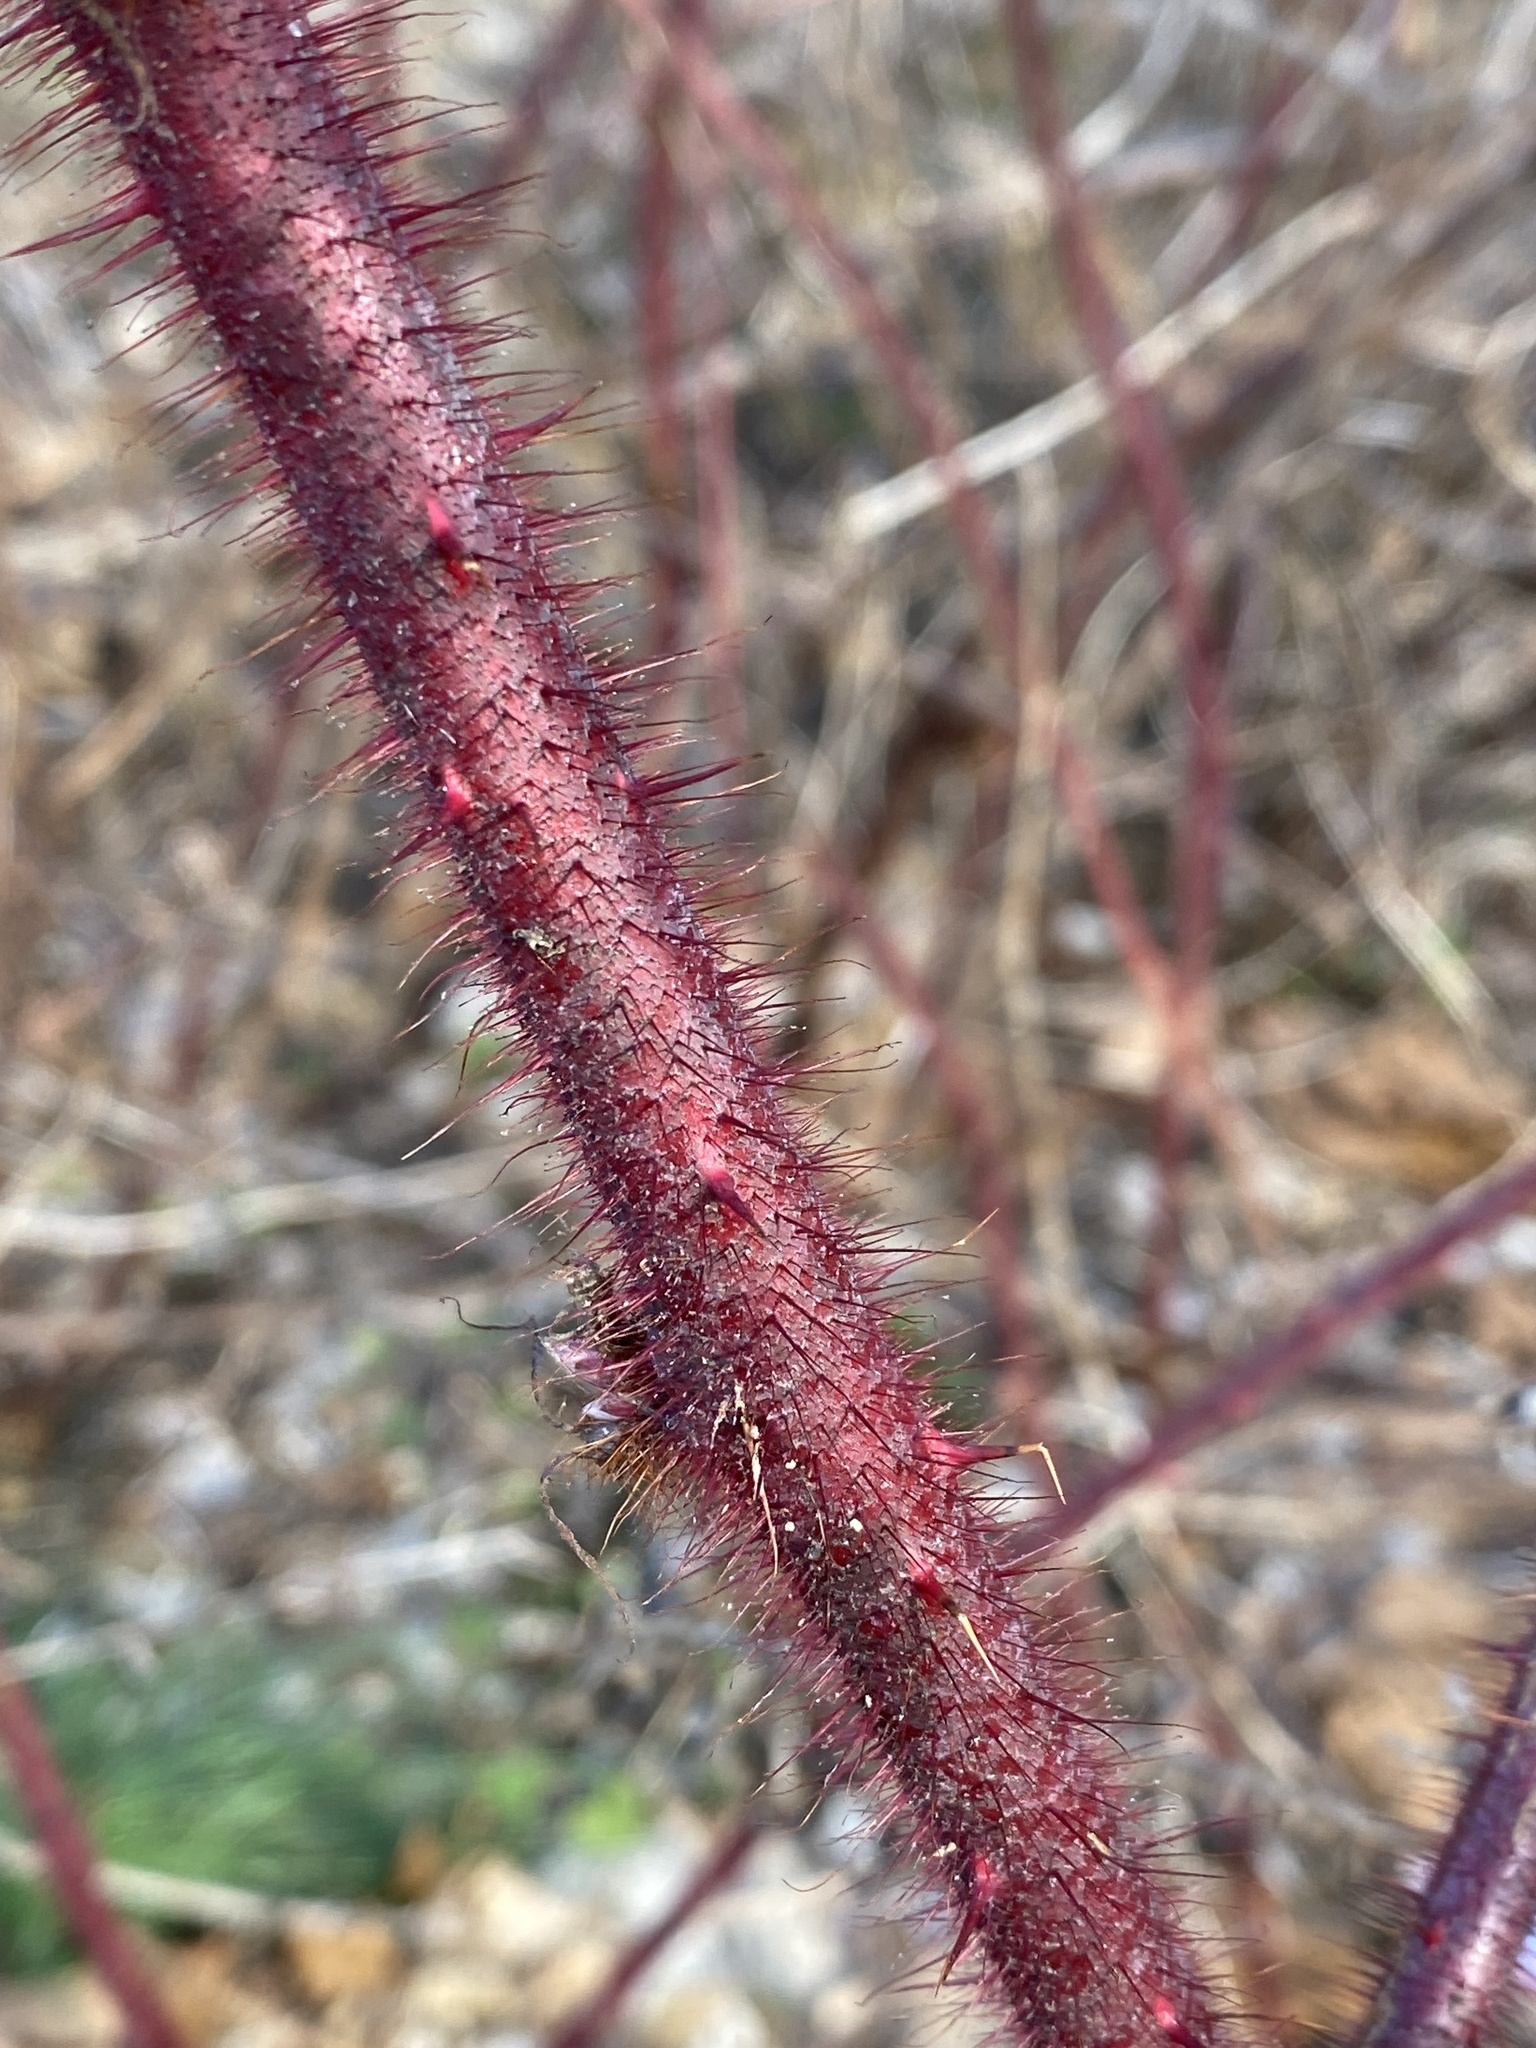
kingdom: Plantae
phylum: Tracheophyta
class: Magnoliopsida
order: Rosales
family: Rosaceae
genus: Rubus
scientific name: Rubus phoenicolasius
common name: Japanese wineberry
